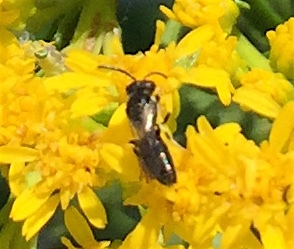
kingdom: Animalia
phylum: Arthropoda
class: Insecta
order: Hymenoptera
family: Colletidae
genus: Hylaeus
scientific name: Hylaeus
